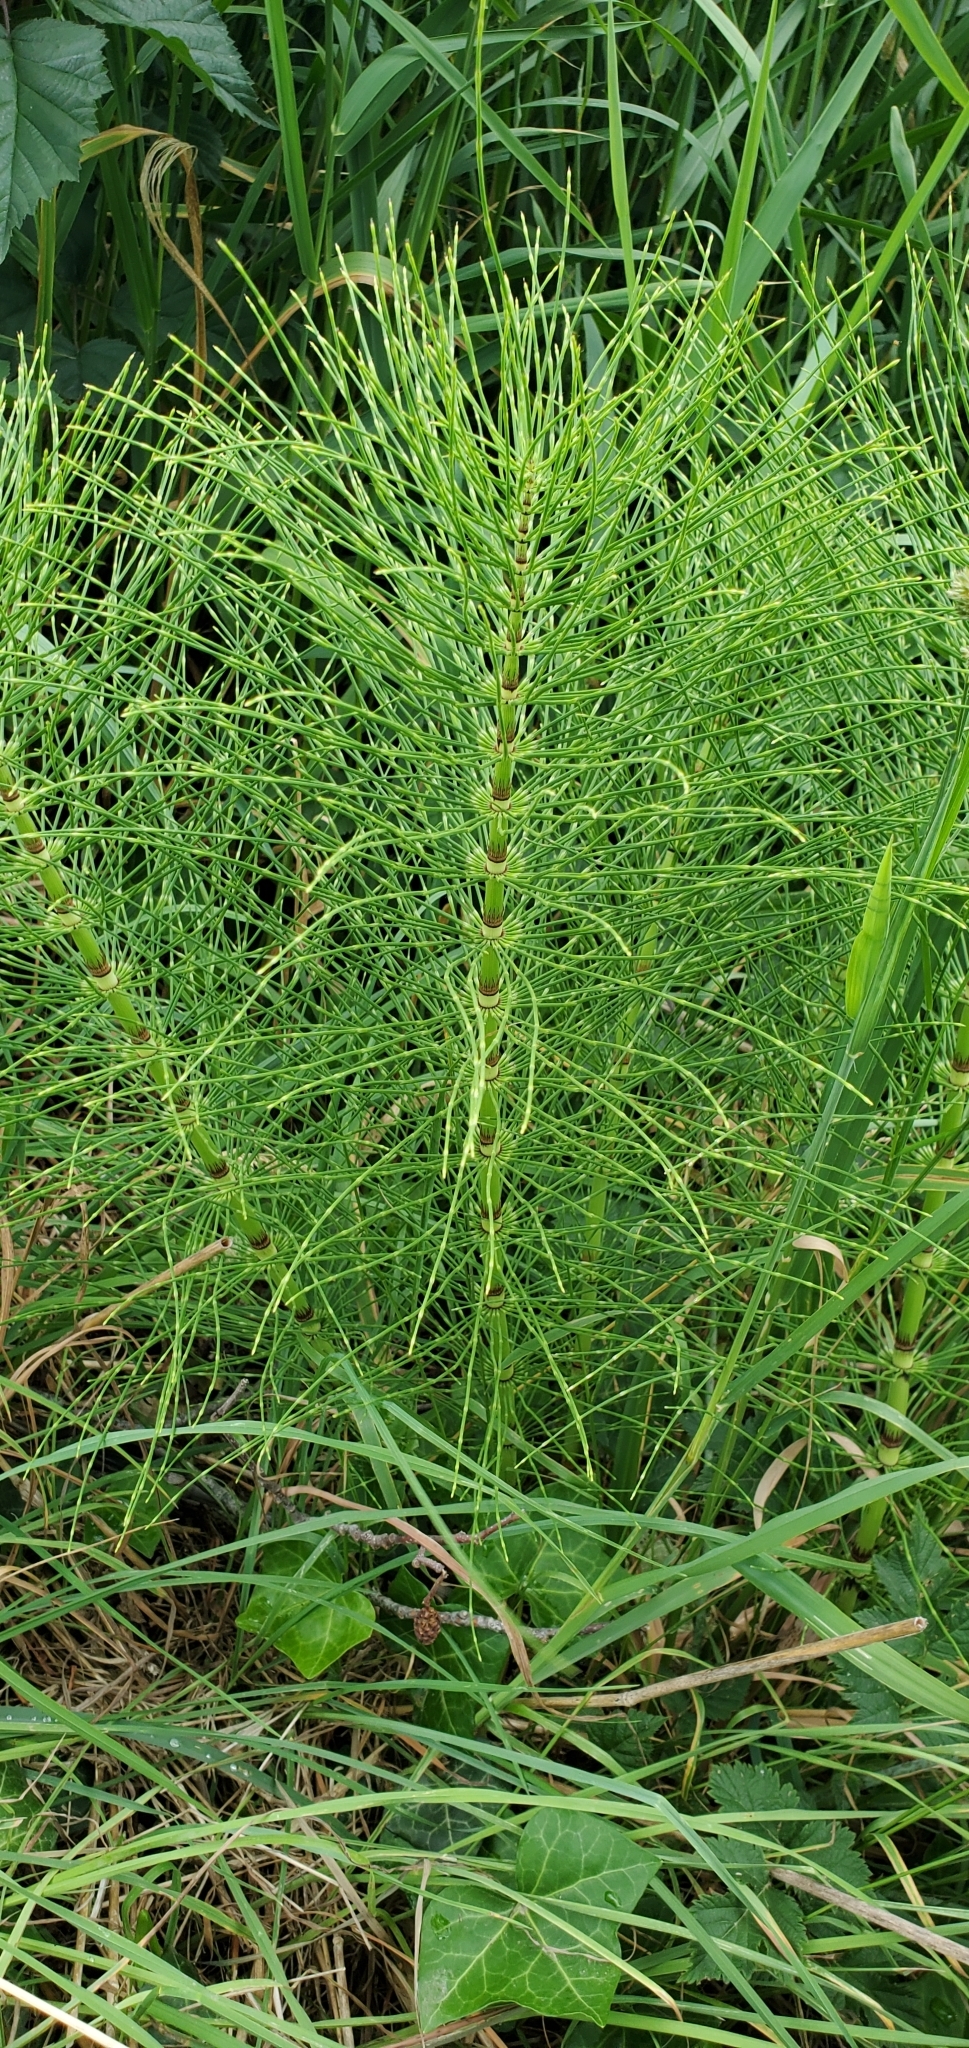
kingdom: Plantae
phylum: Tracheophyta
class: Polypodiopsida
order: Equisetales
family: Equisetaceae
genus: Equisetum
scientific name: Equisetum braunii
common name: Braun's horsetail
